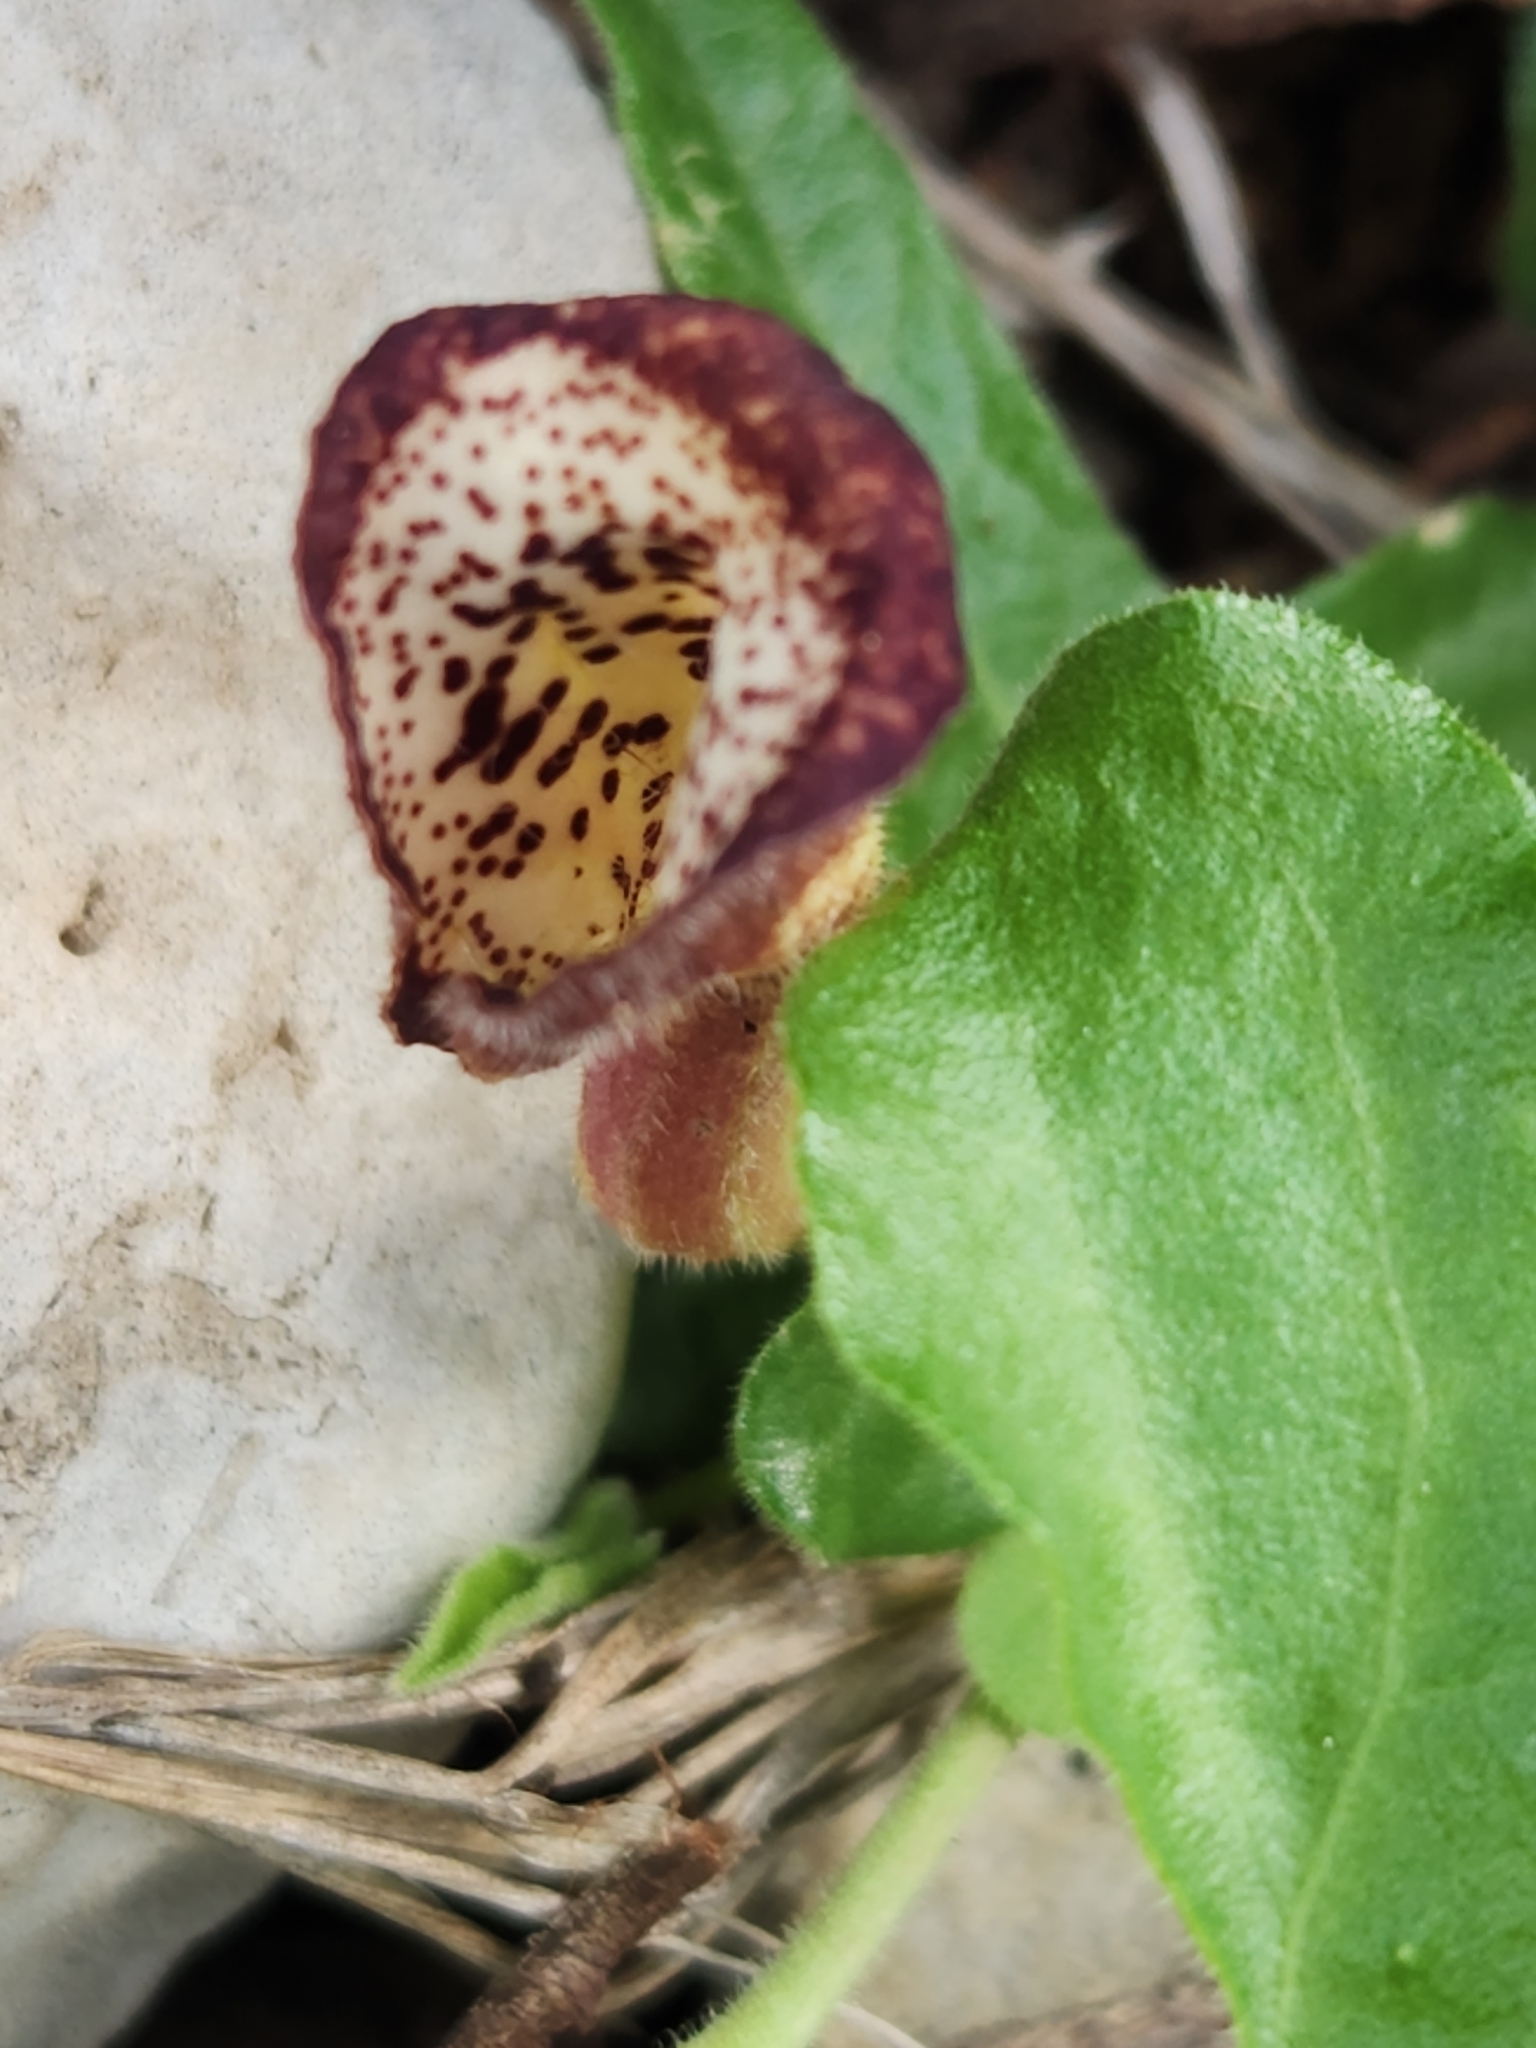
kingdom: Plantae
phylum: Tracheophyta
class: Magnoliopsida
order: Piperales
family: Aristolochiaceae
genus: Aristolochia
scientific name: Aristolochia coryi
